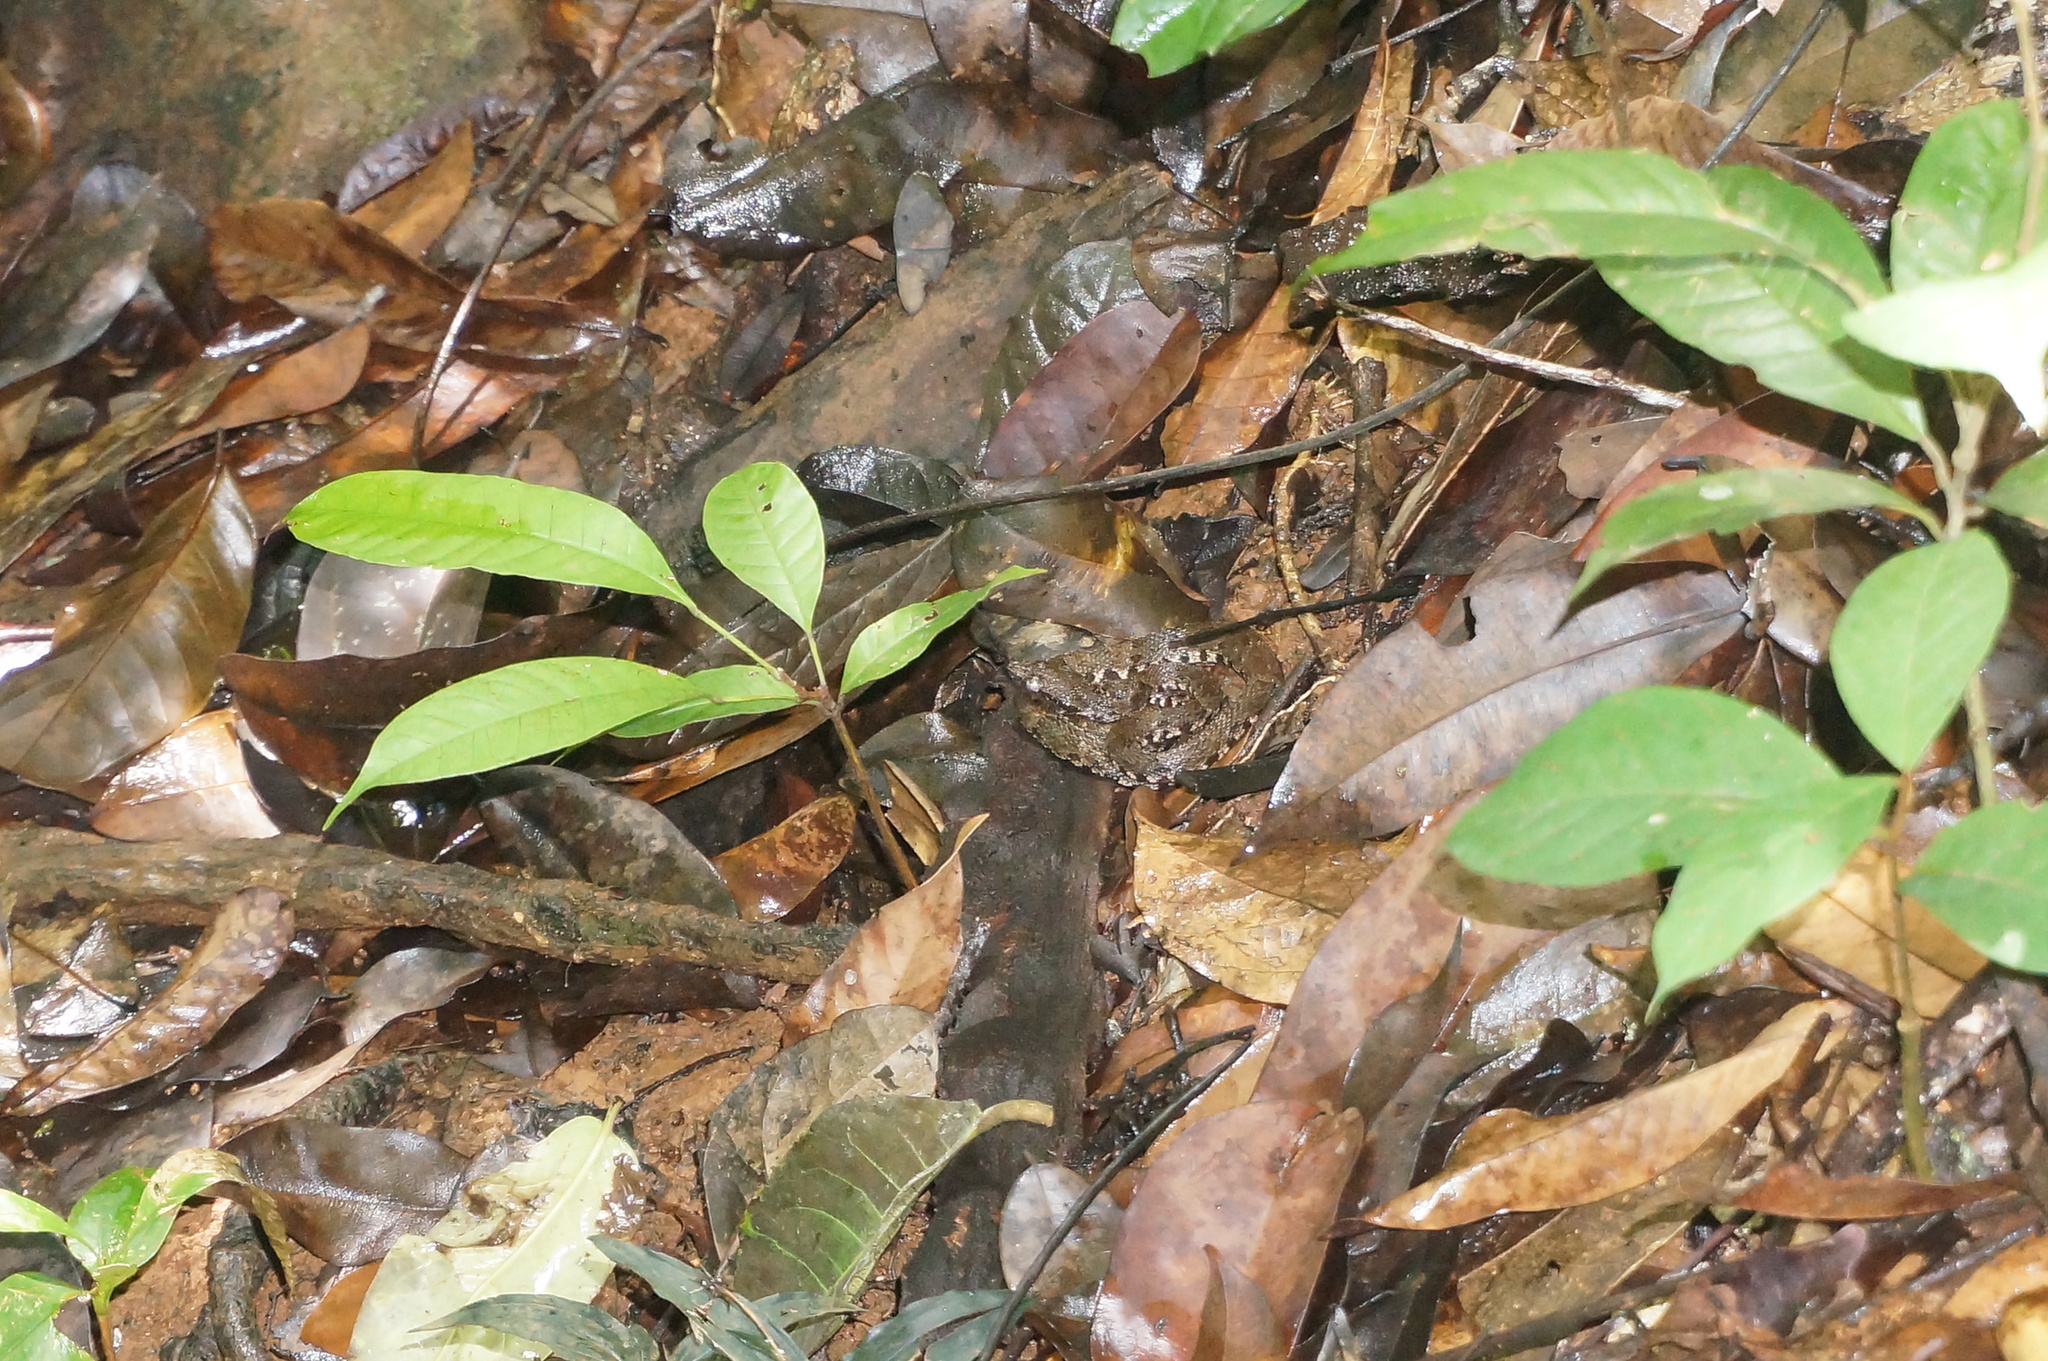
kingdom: Animalia
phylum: Chordata
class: Squamata
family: Viperidae
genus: Bothrops
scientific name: Bothrops atrox
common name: Common lancehead
